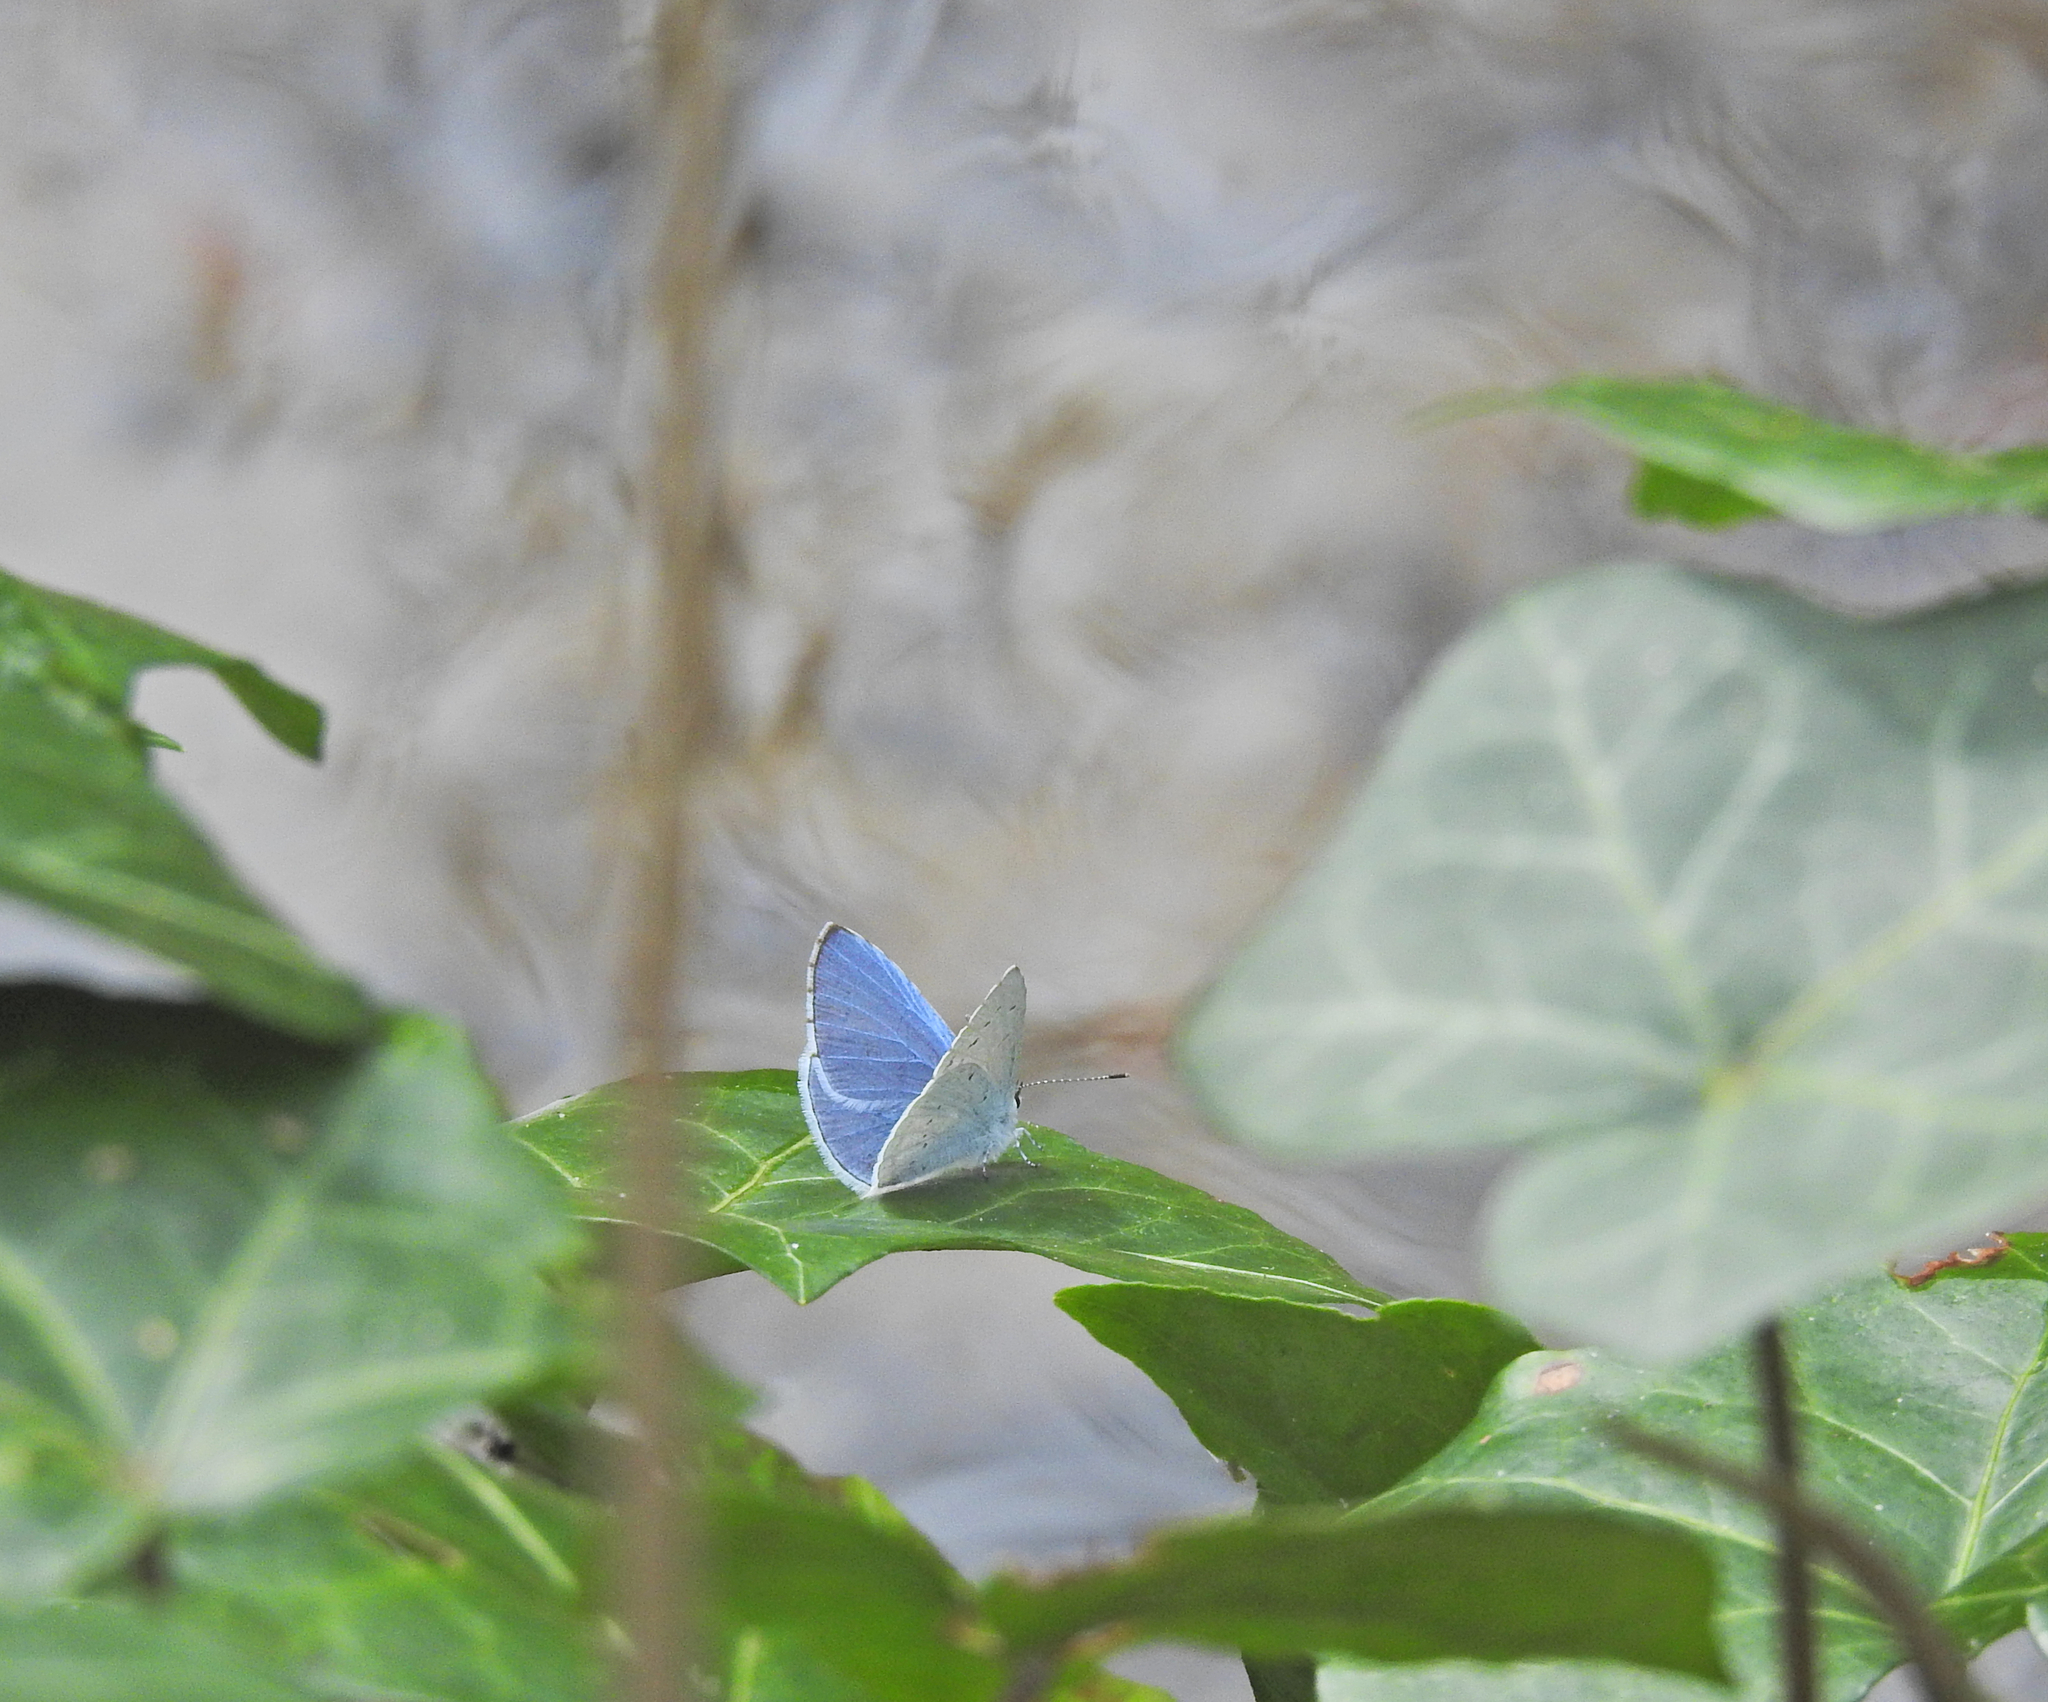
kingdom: Animalia
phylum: Arthropoda
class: Insecta
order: Lepidoptera
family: Lycaenidae
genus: Celastrina
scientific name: Celastrina argiolus
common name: Holly blue
